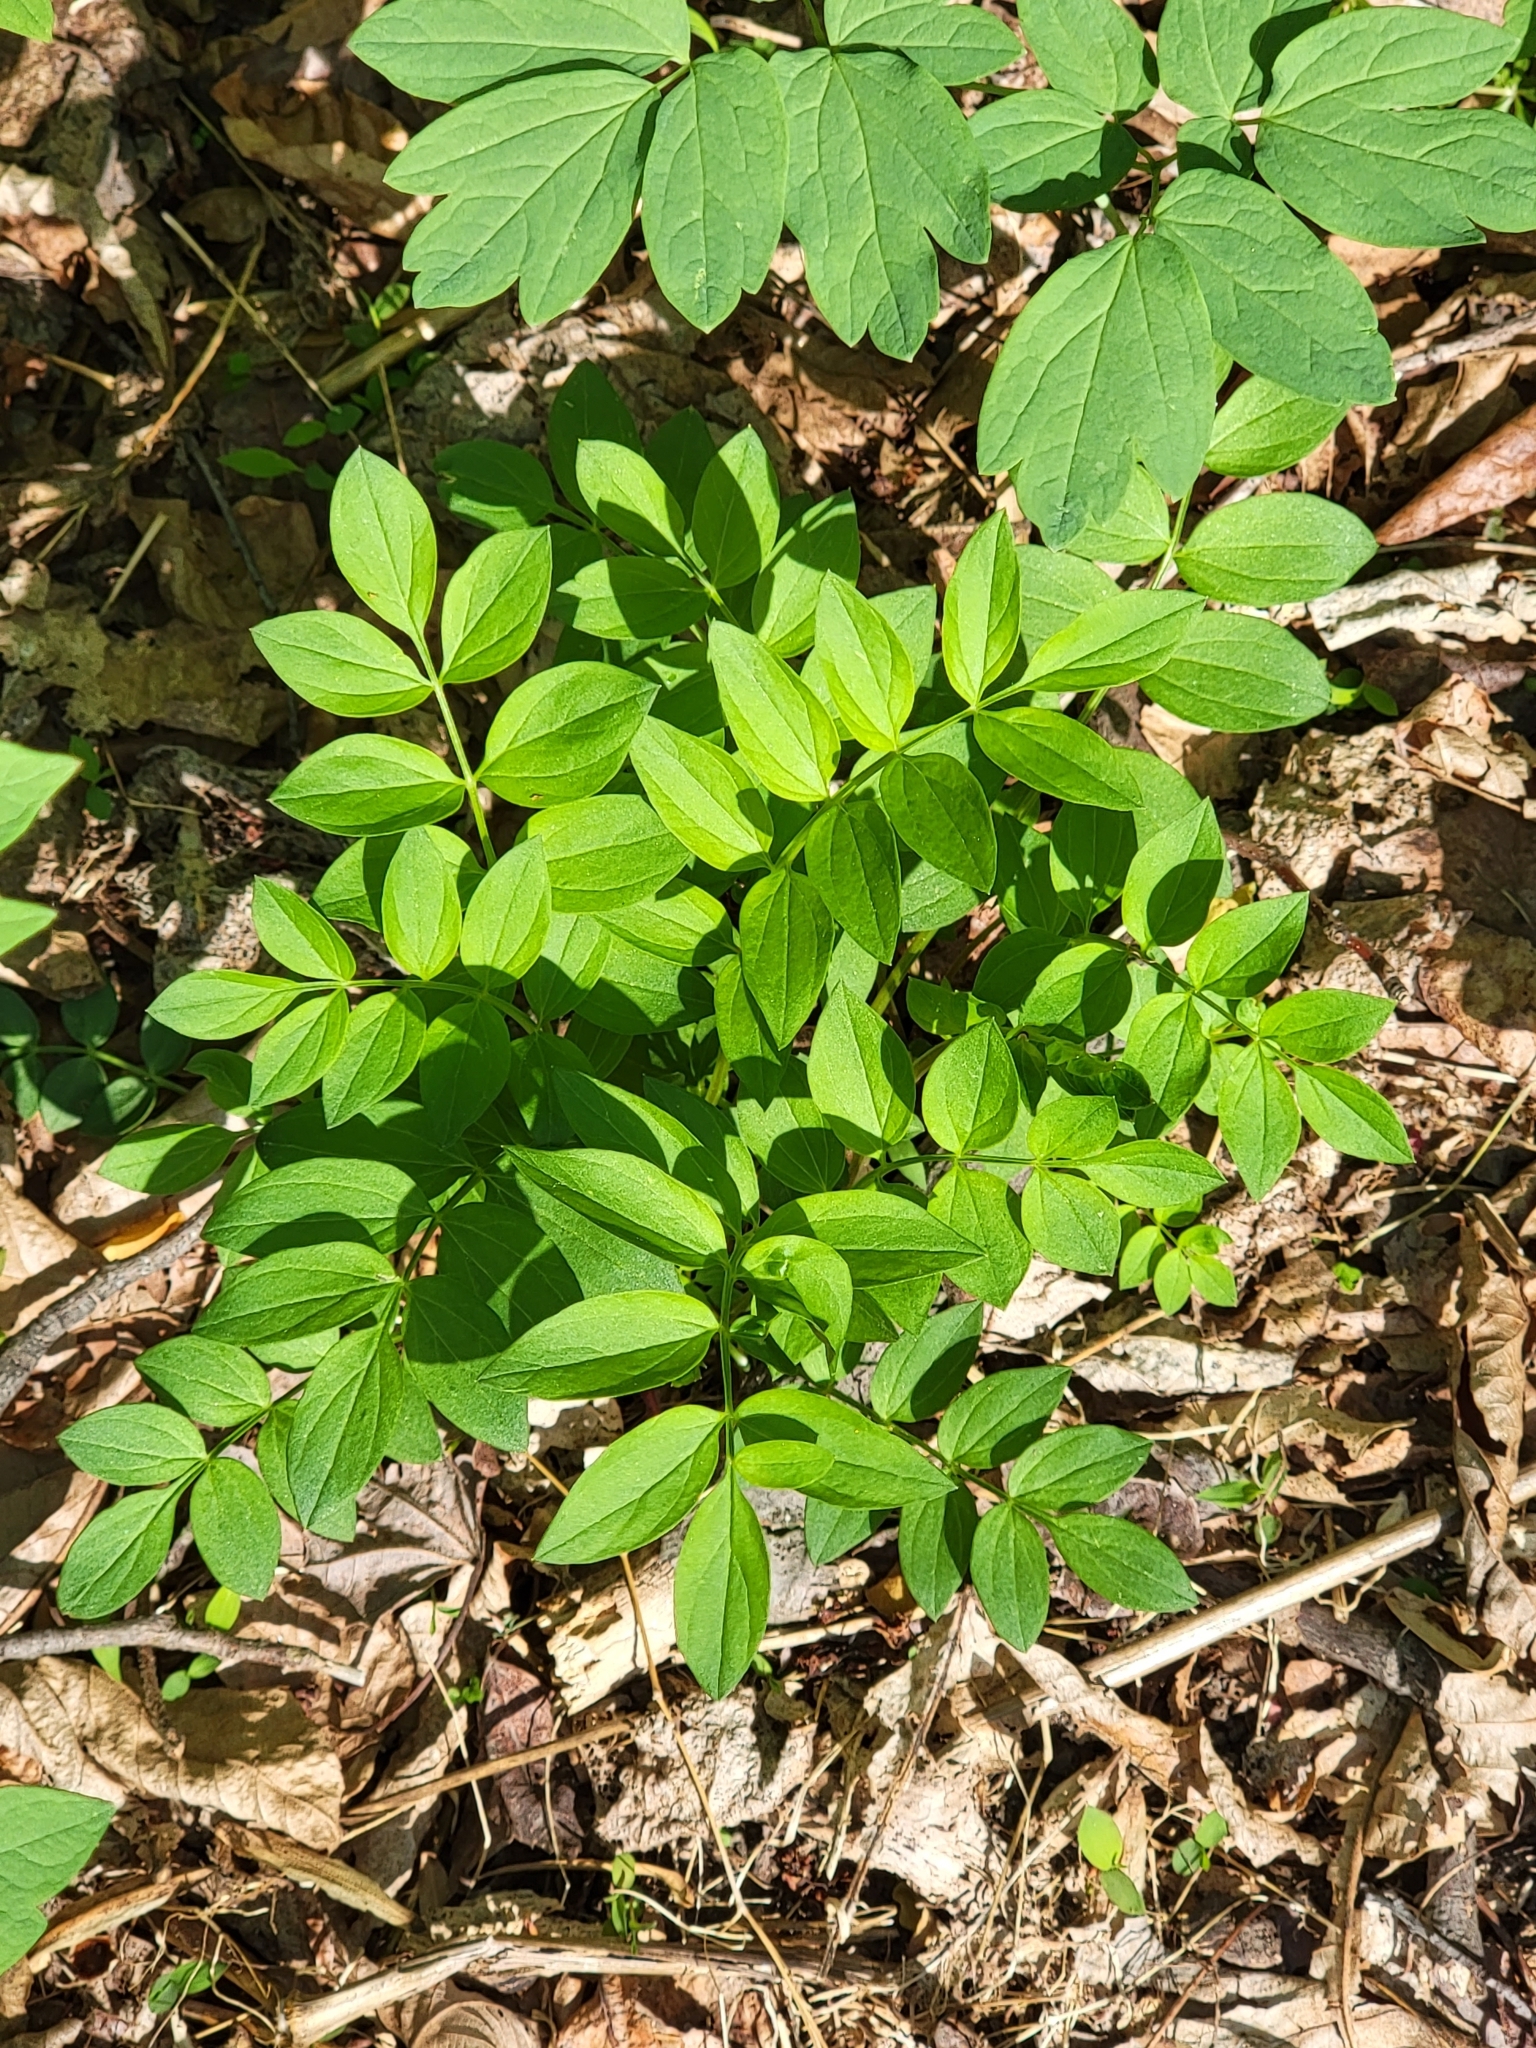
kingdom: Plantae
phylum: Tracheophyta
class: Magnoliopsida
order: Ericales
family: Polemoniaceae
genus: Polemonium
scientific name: Polemonium reptans
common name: Creeping jacob's-ladder
